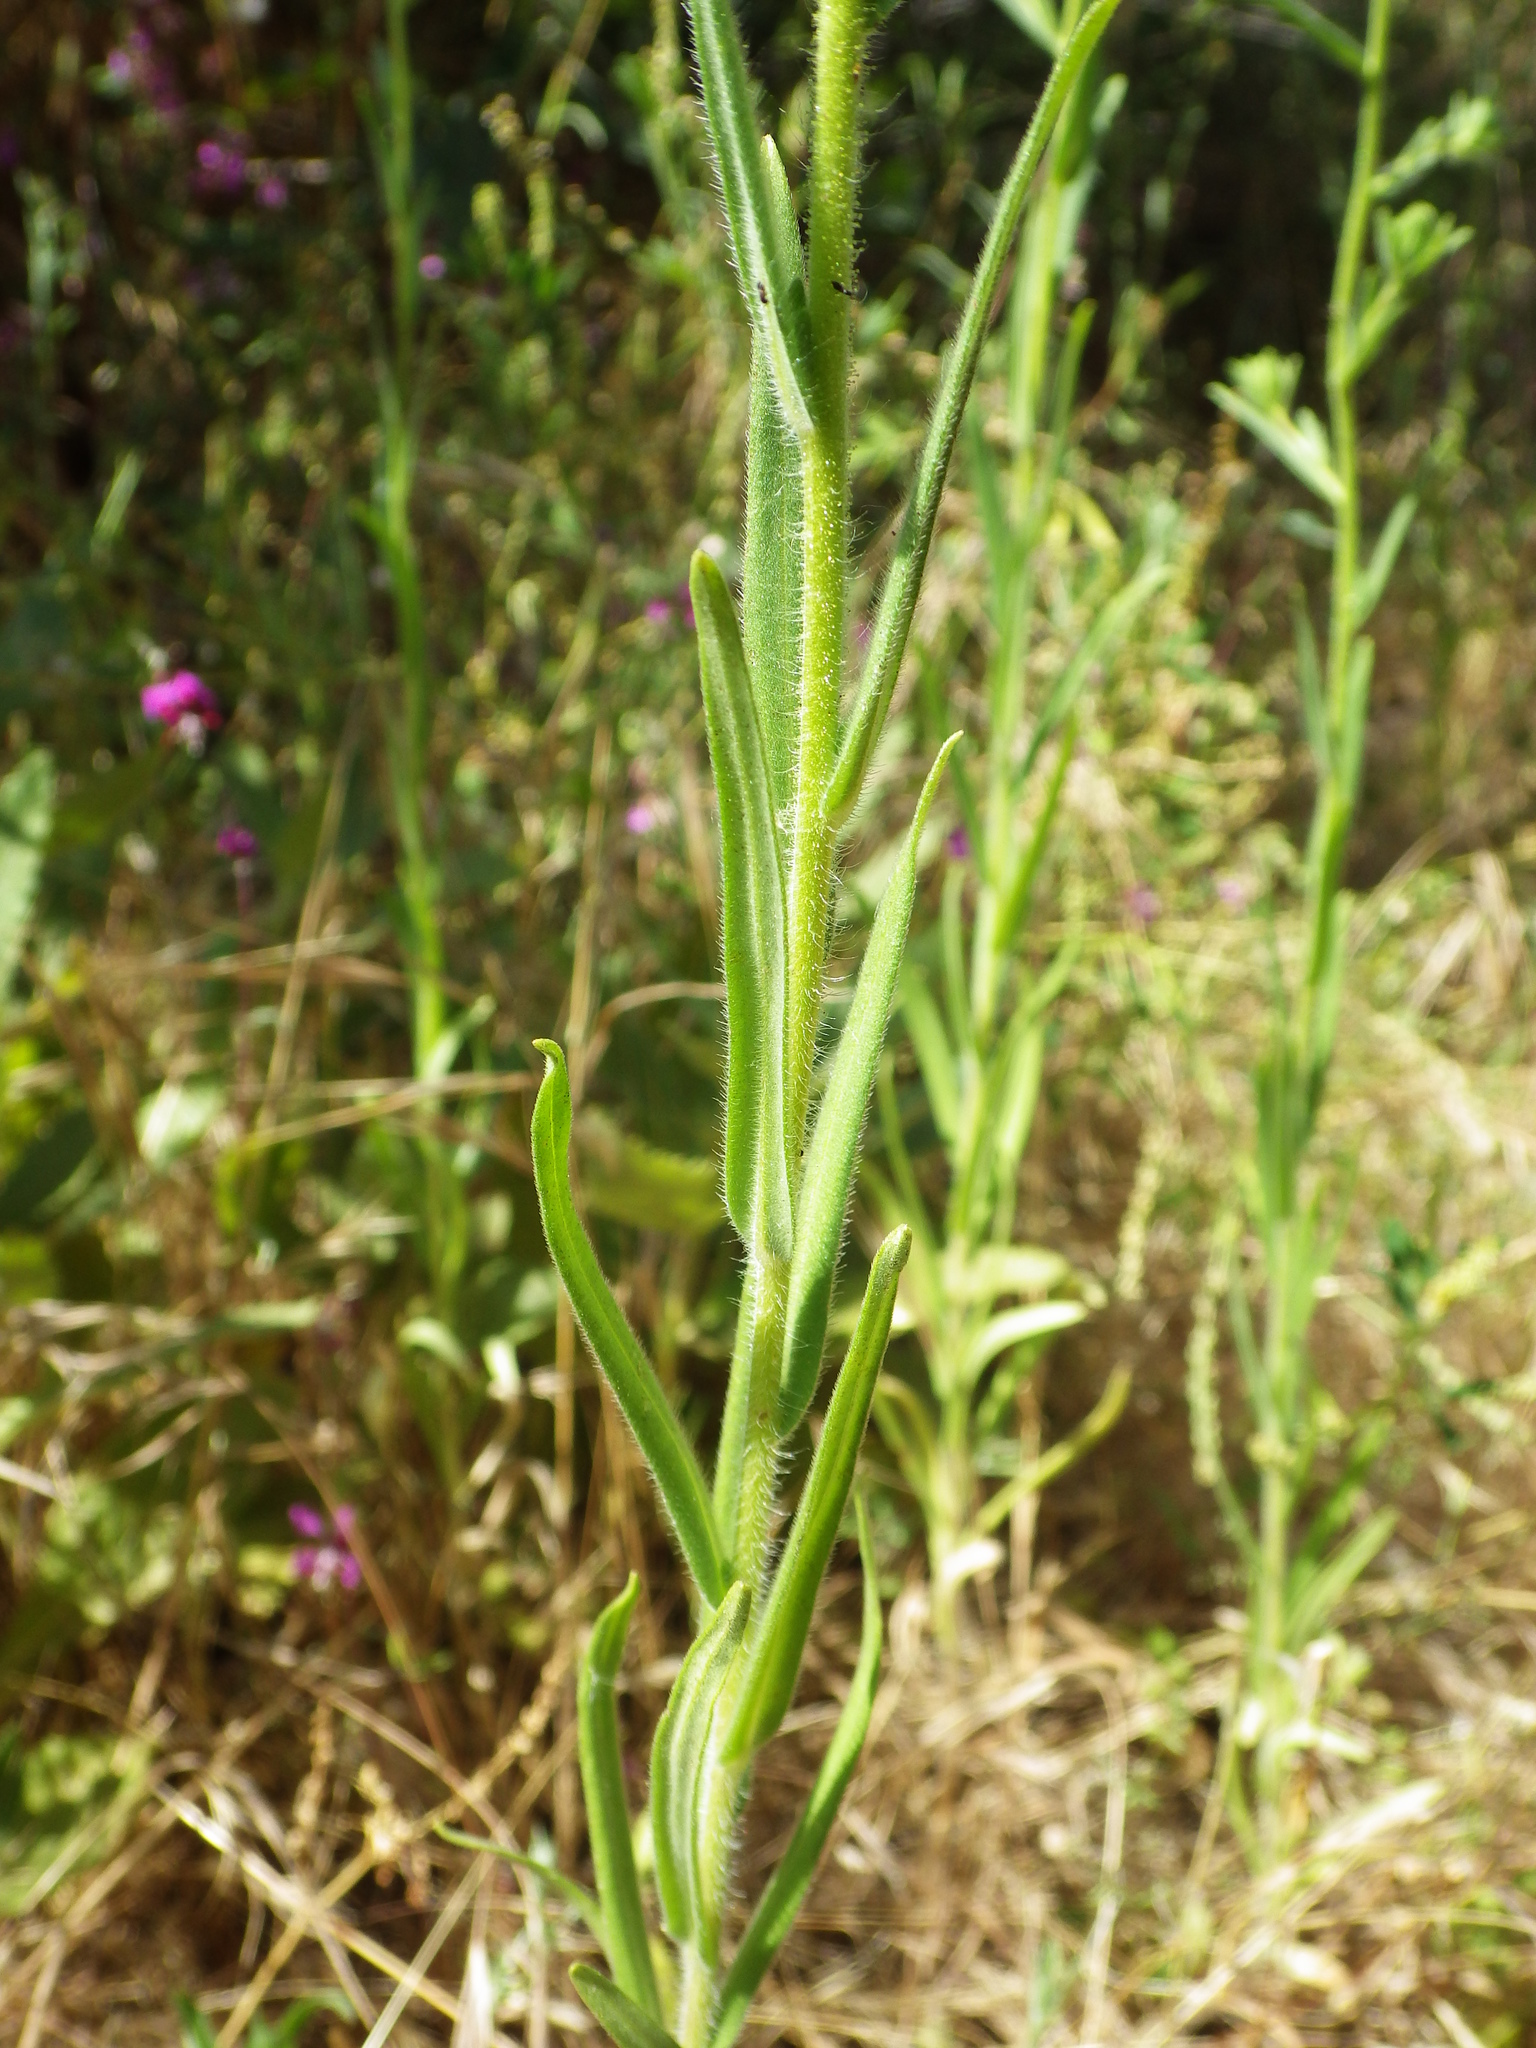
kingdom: Plantae
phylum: Tracheophyta
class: Magnoliopsida
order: Asterales
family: Asteraceae
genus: Madia
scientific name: Madia gracilis
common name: Grassy tarweed
